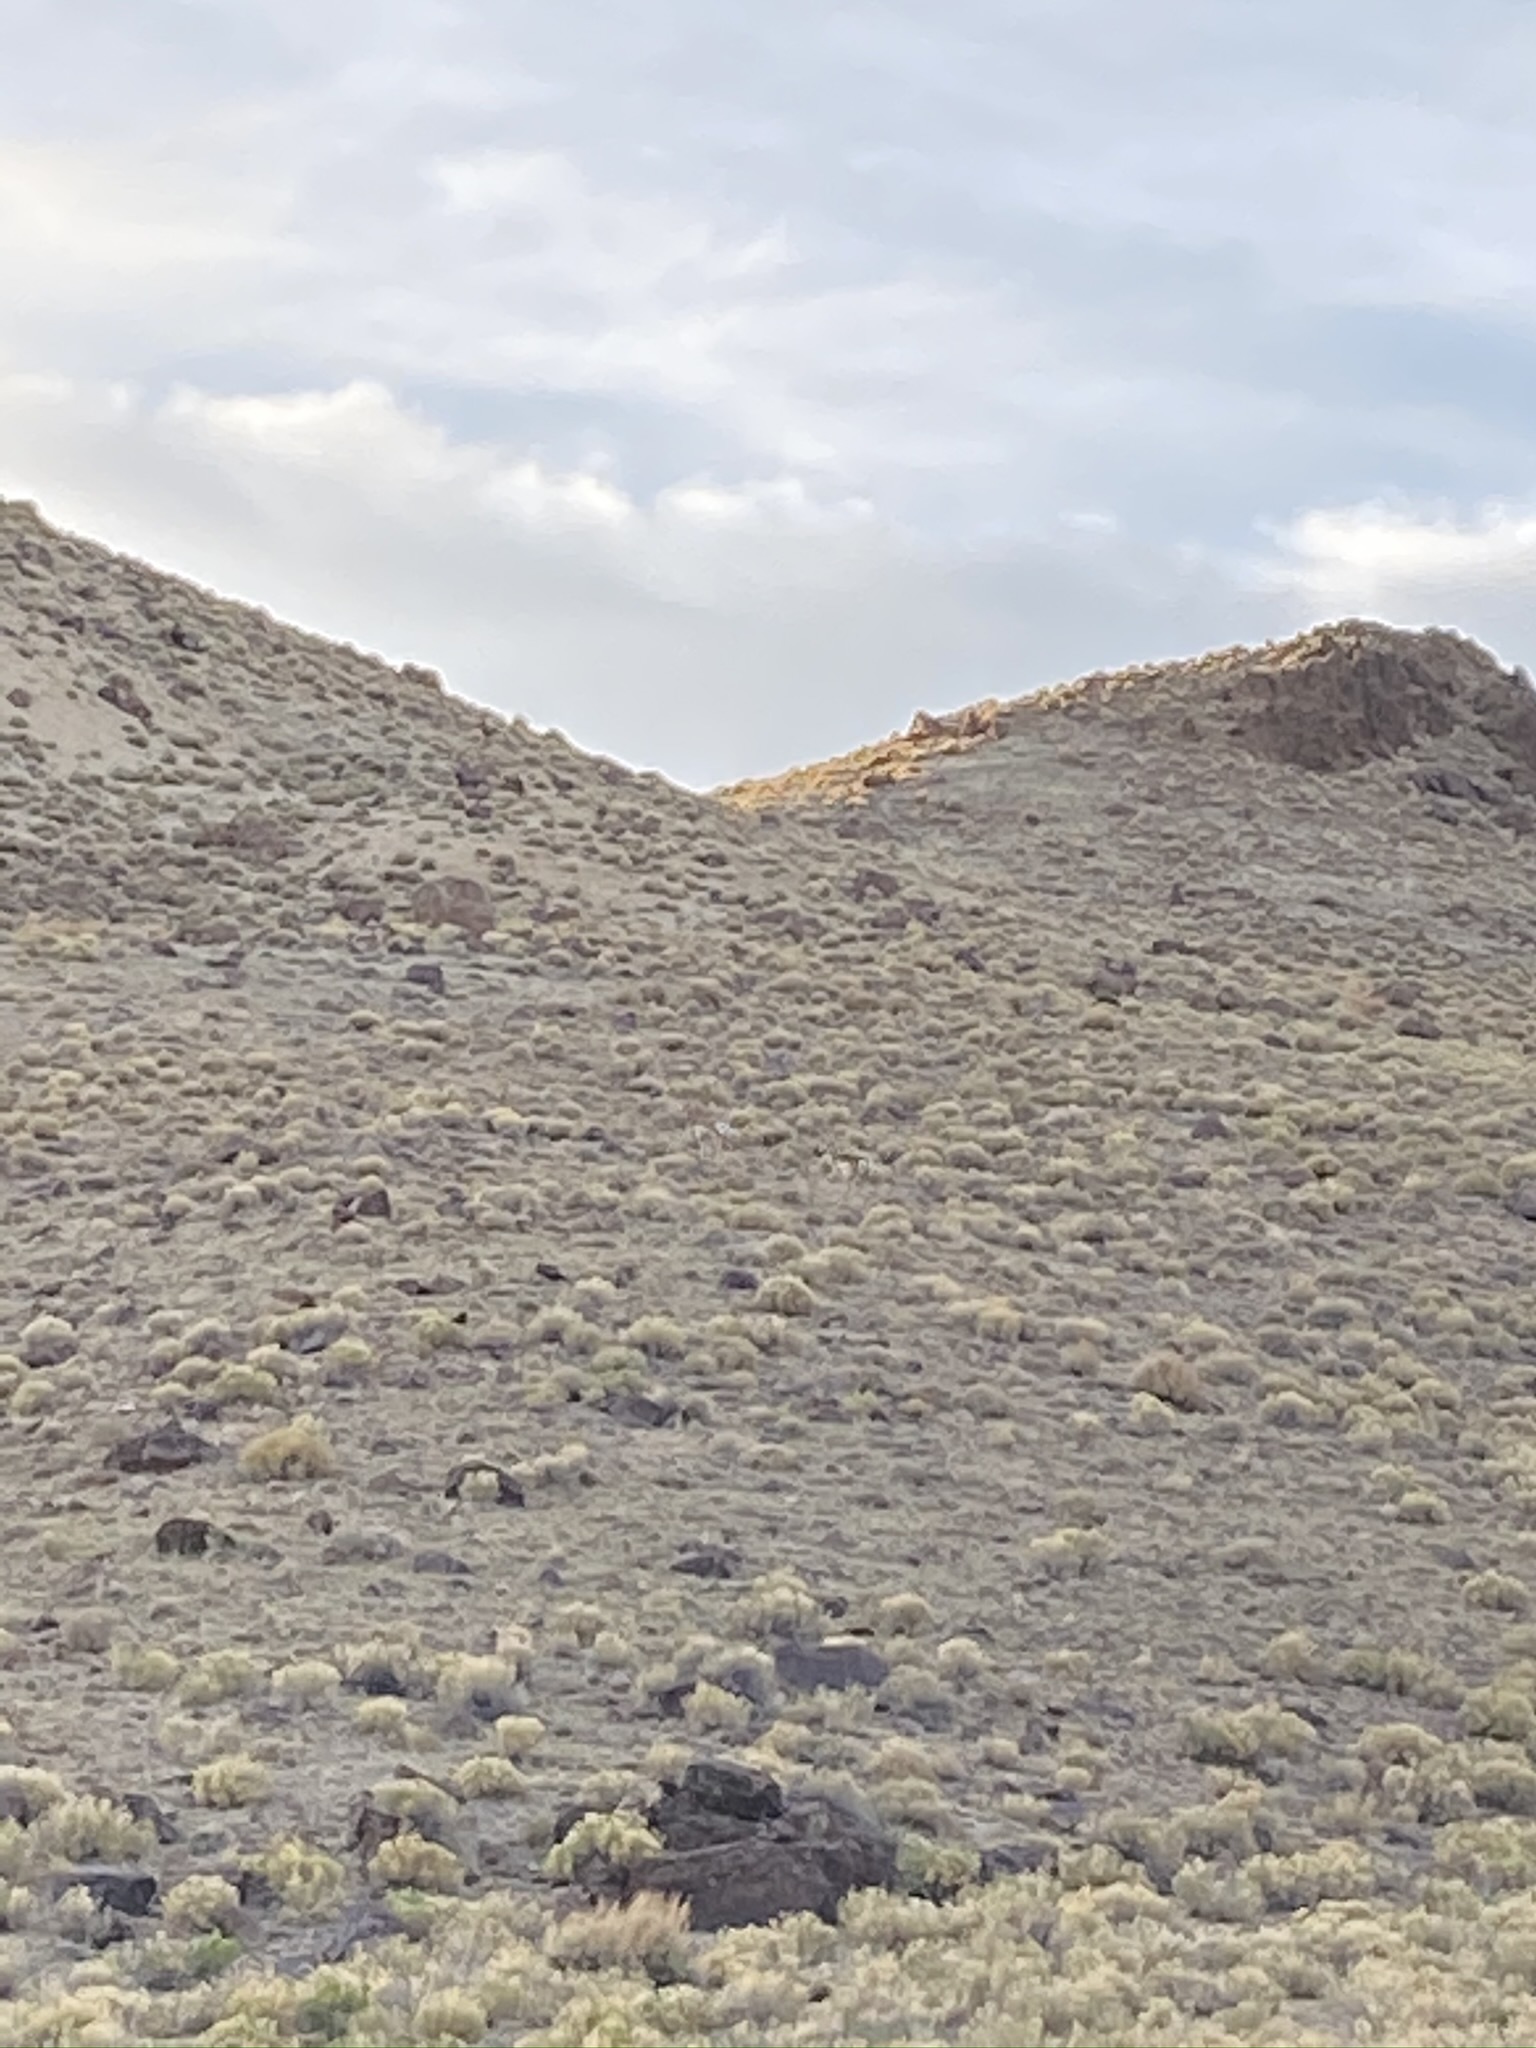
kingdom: Animalia
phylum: Chordata
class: Mammalia
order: Artiodactyla
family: Antilocapridae
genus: Antilocapra
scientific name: Antilocapra americana
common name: Pronghorn
